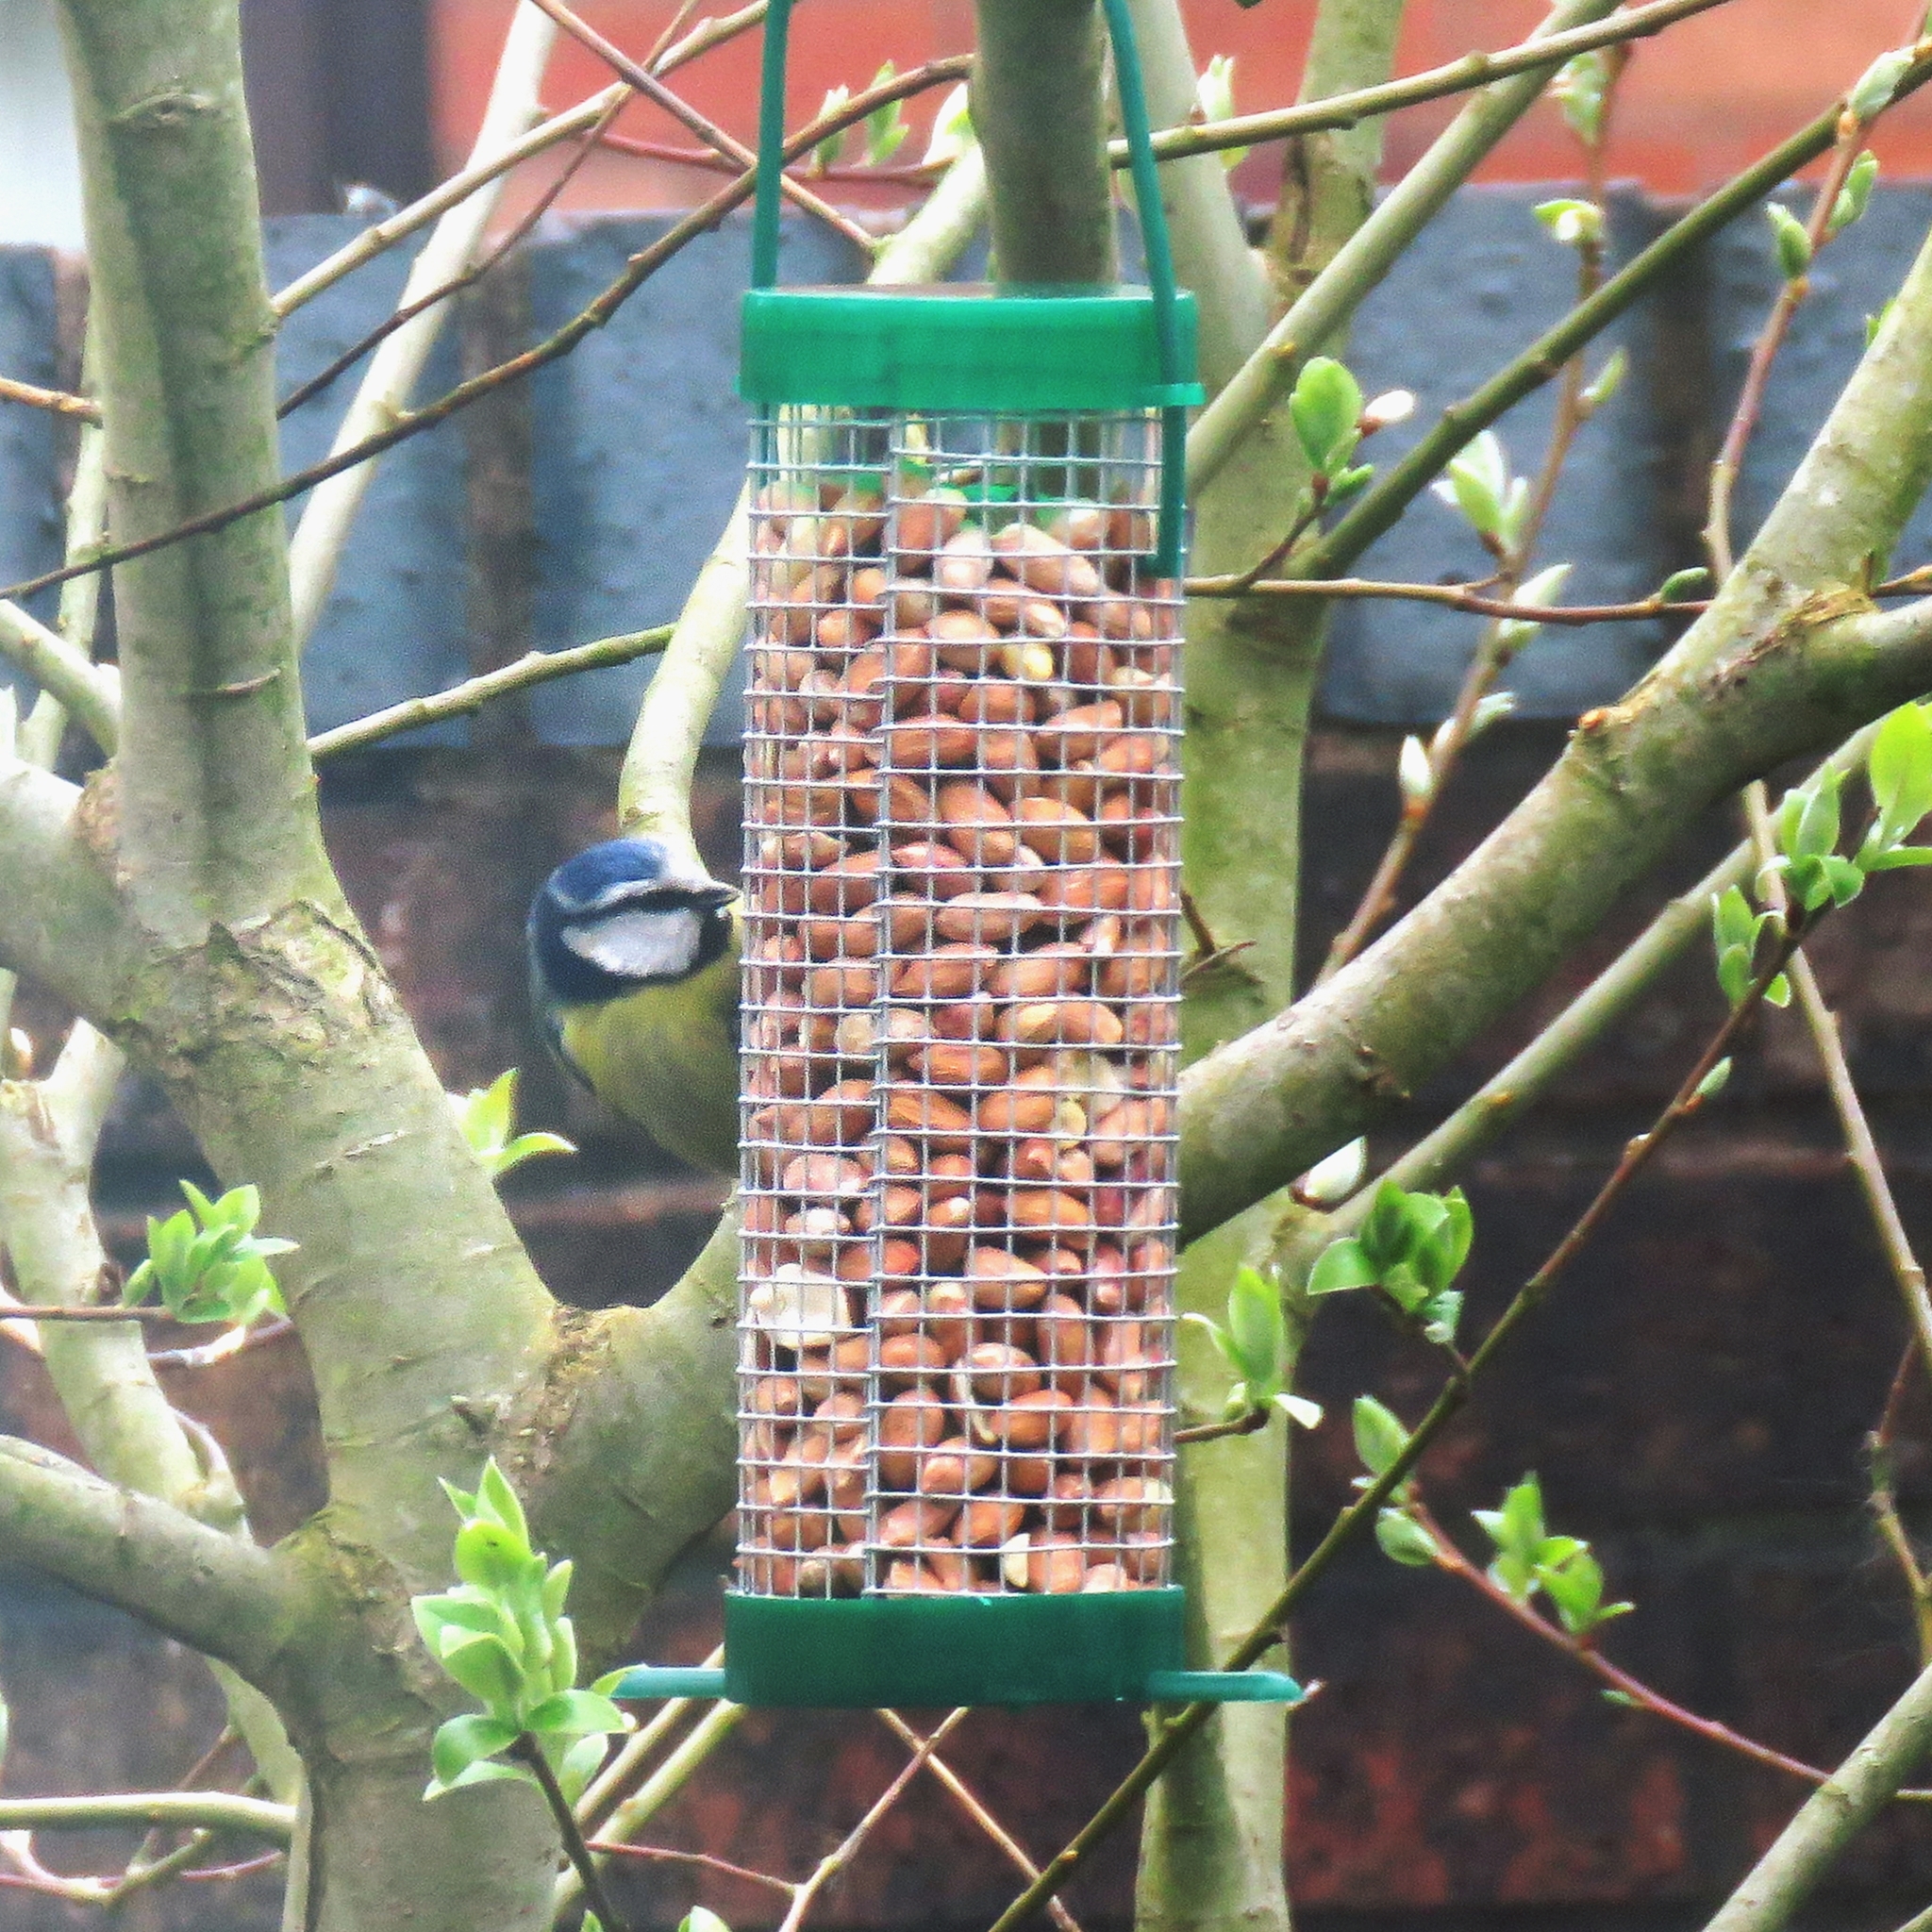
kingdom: Animalia
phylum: Chordata
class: Aves
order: Passeriformes
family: Paridae
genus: Cyanistes
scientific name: Cyanistes caeruleus
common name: Eurasian blue tit
